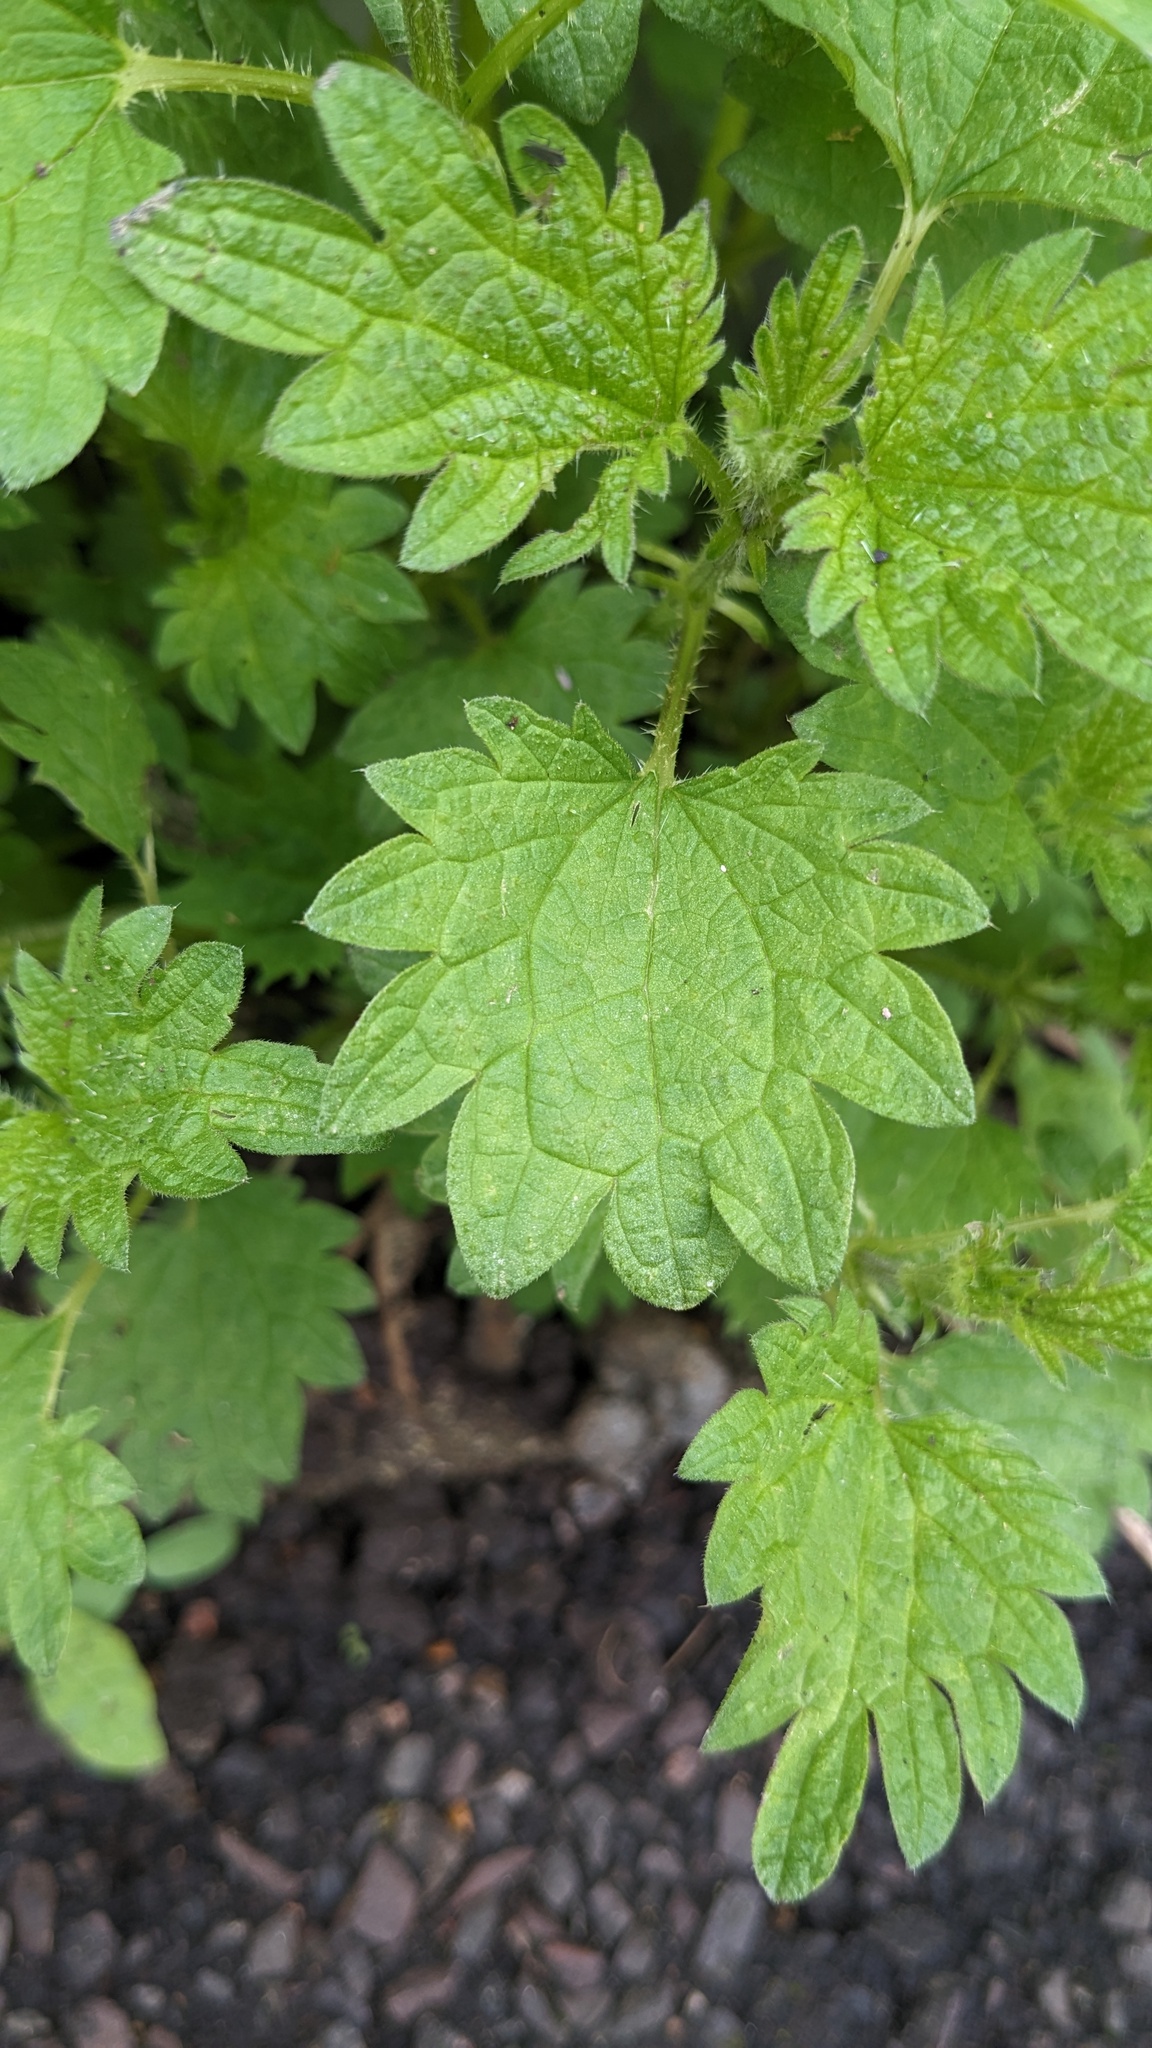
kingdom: Plantae
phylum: Tracheophyta
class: Magnoliopsida
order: Rosales
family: Urticaceae
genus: Urtica
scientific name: Urtica dioica
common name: Common nettle
